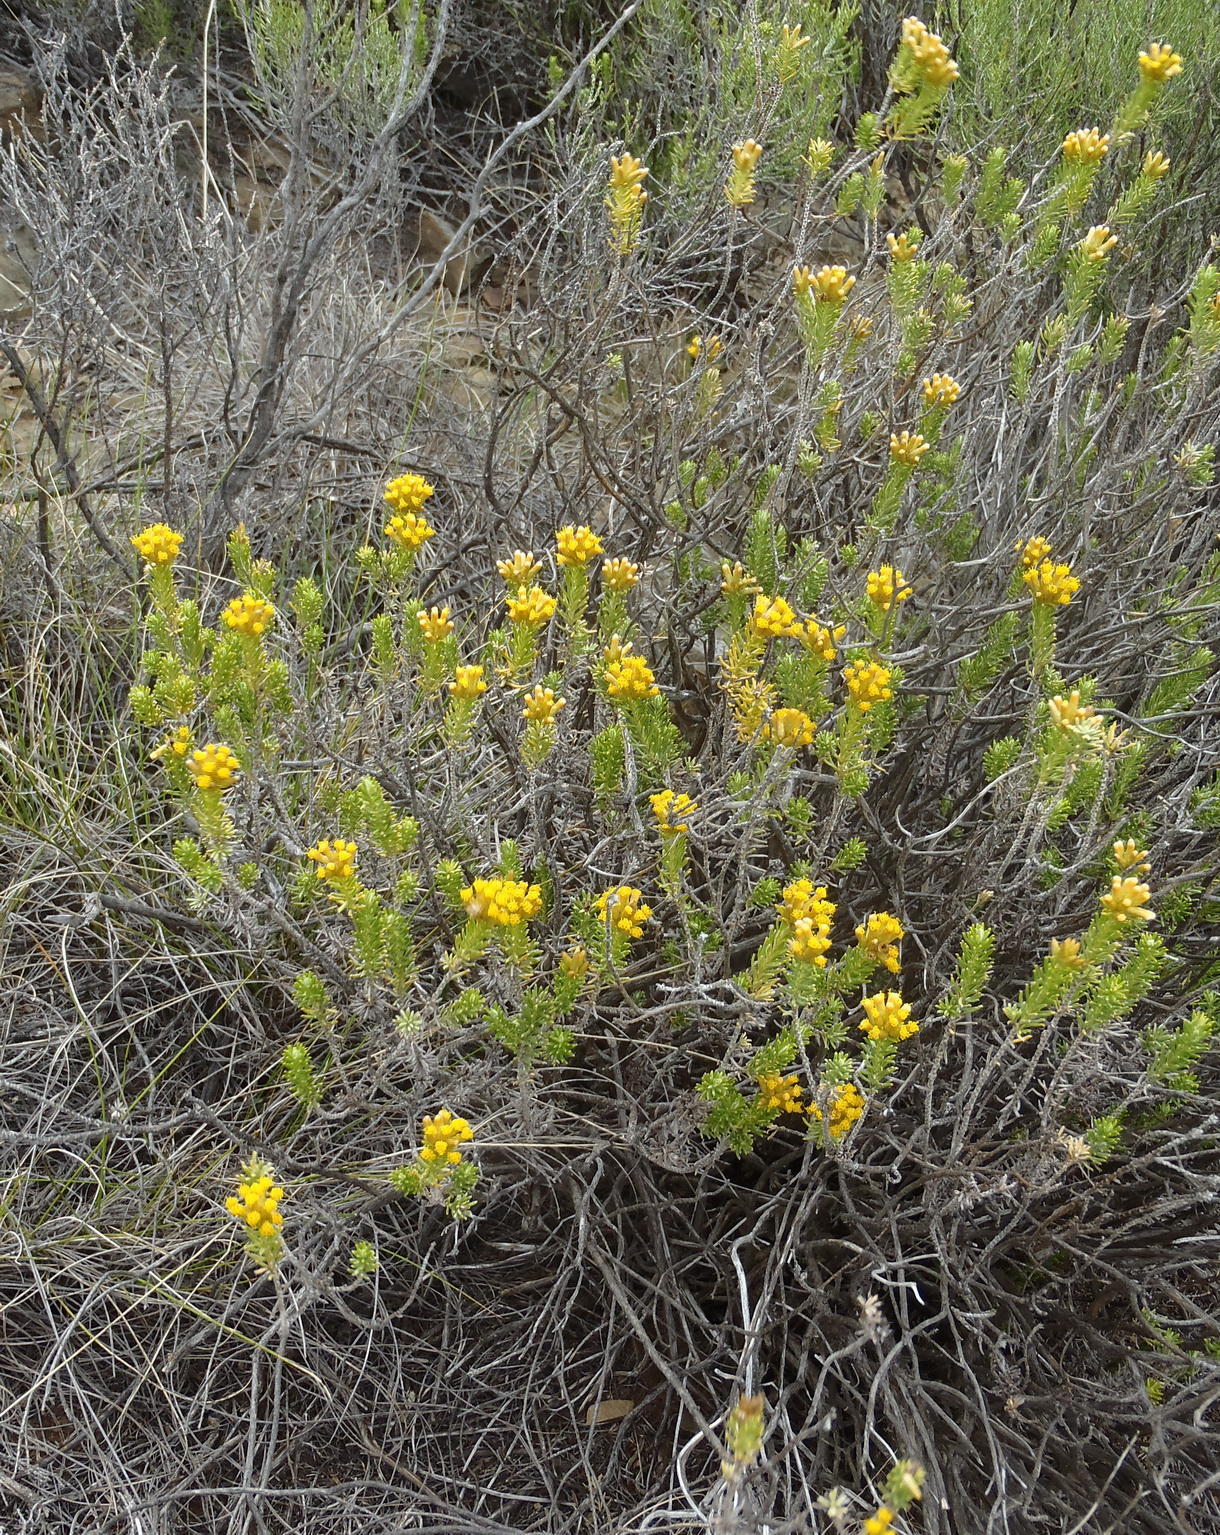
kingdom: Plantae
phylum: Tracheophyta
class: Magnoliopsida
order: Asterales
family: Asteraceae
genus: Helichrysum
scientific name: Helichrysum hamulosum
